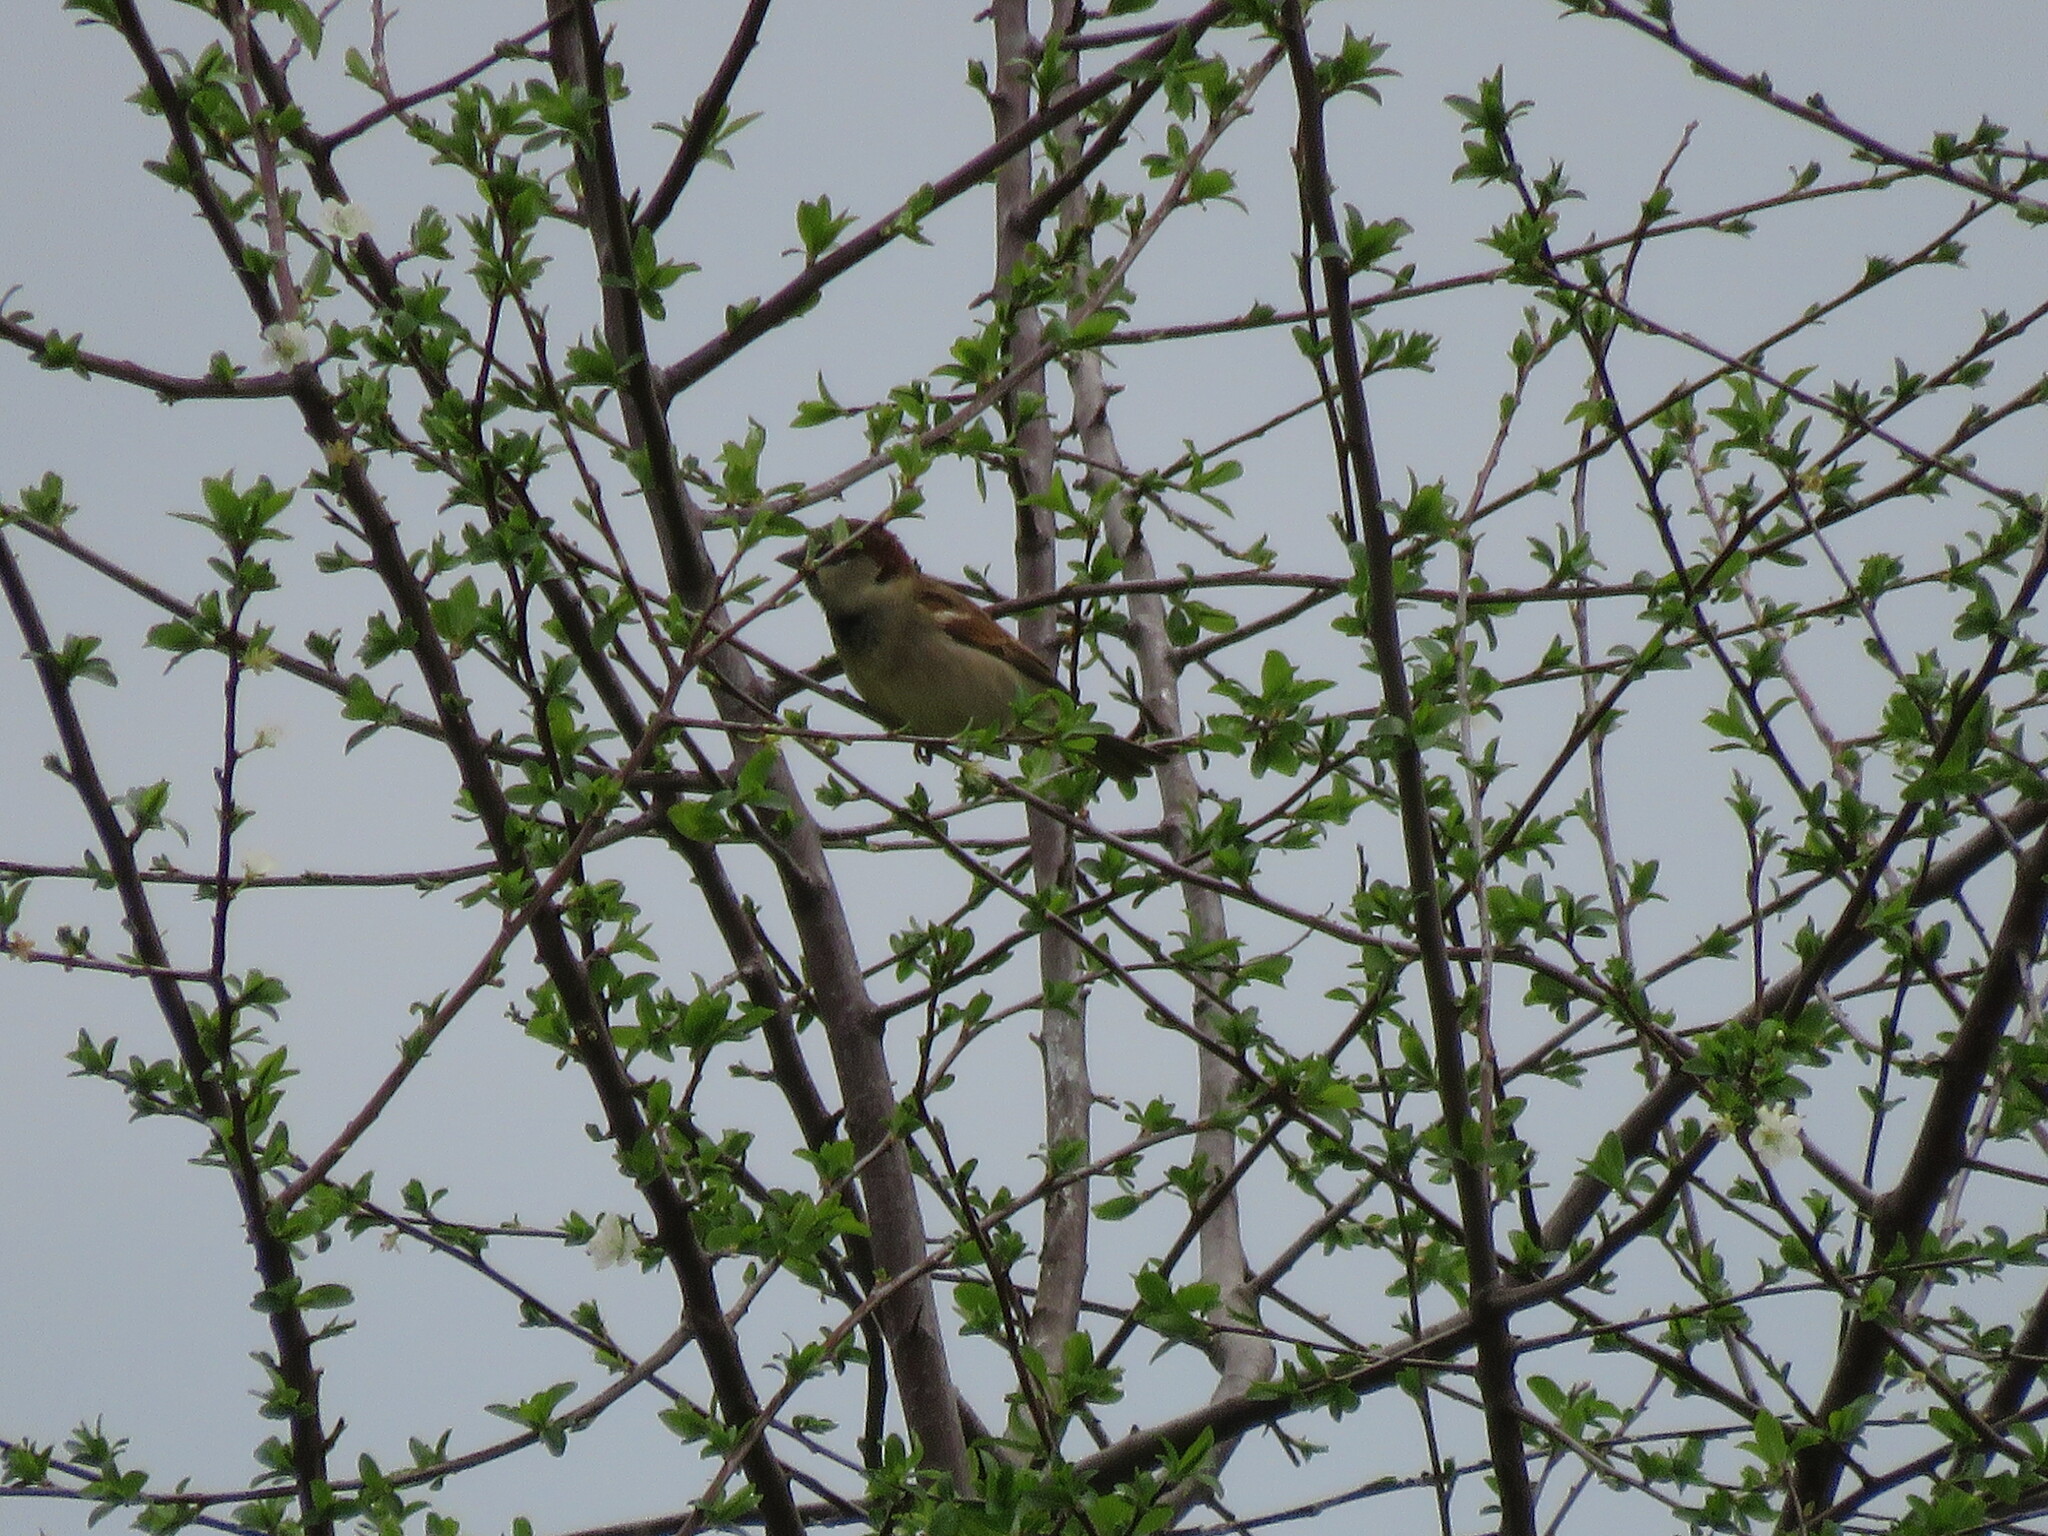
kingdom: Animalia
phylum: Chordata
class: Aves
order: Passeriformes
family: Passeridae
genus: Passer
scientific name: Passer domesticus
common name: House sparrow
